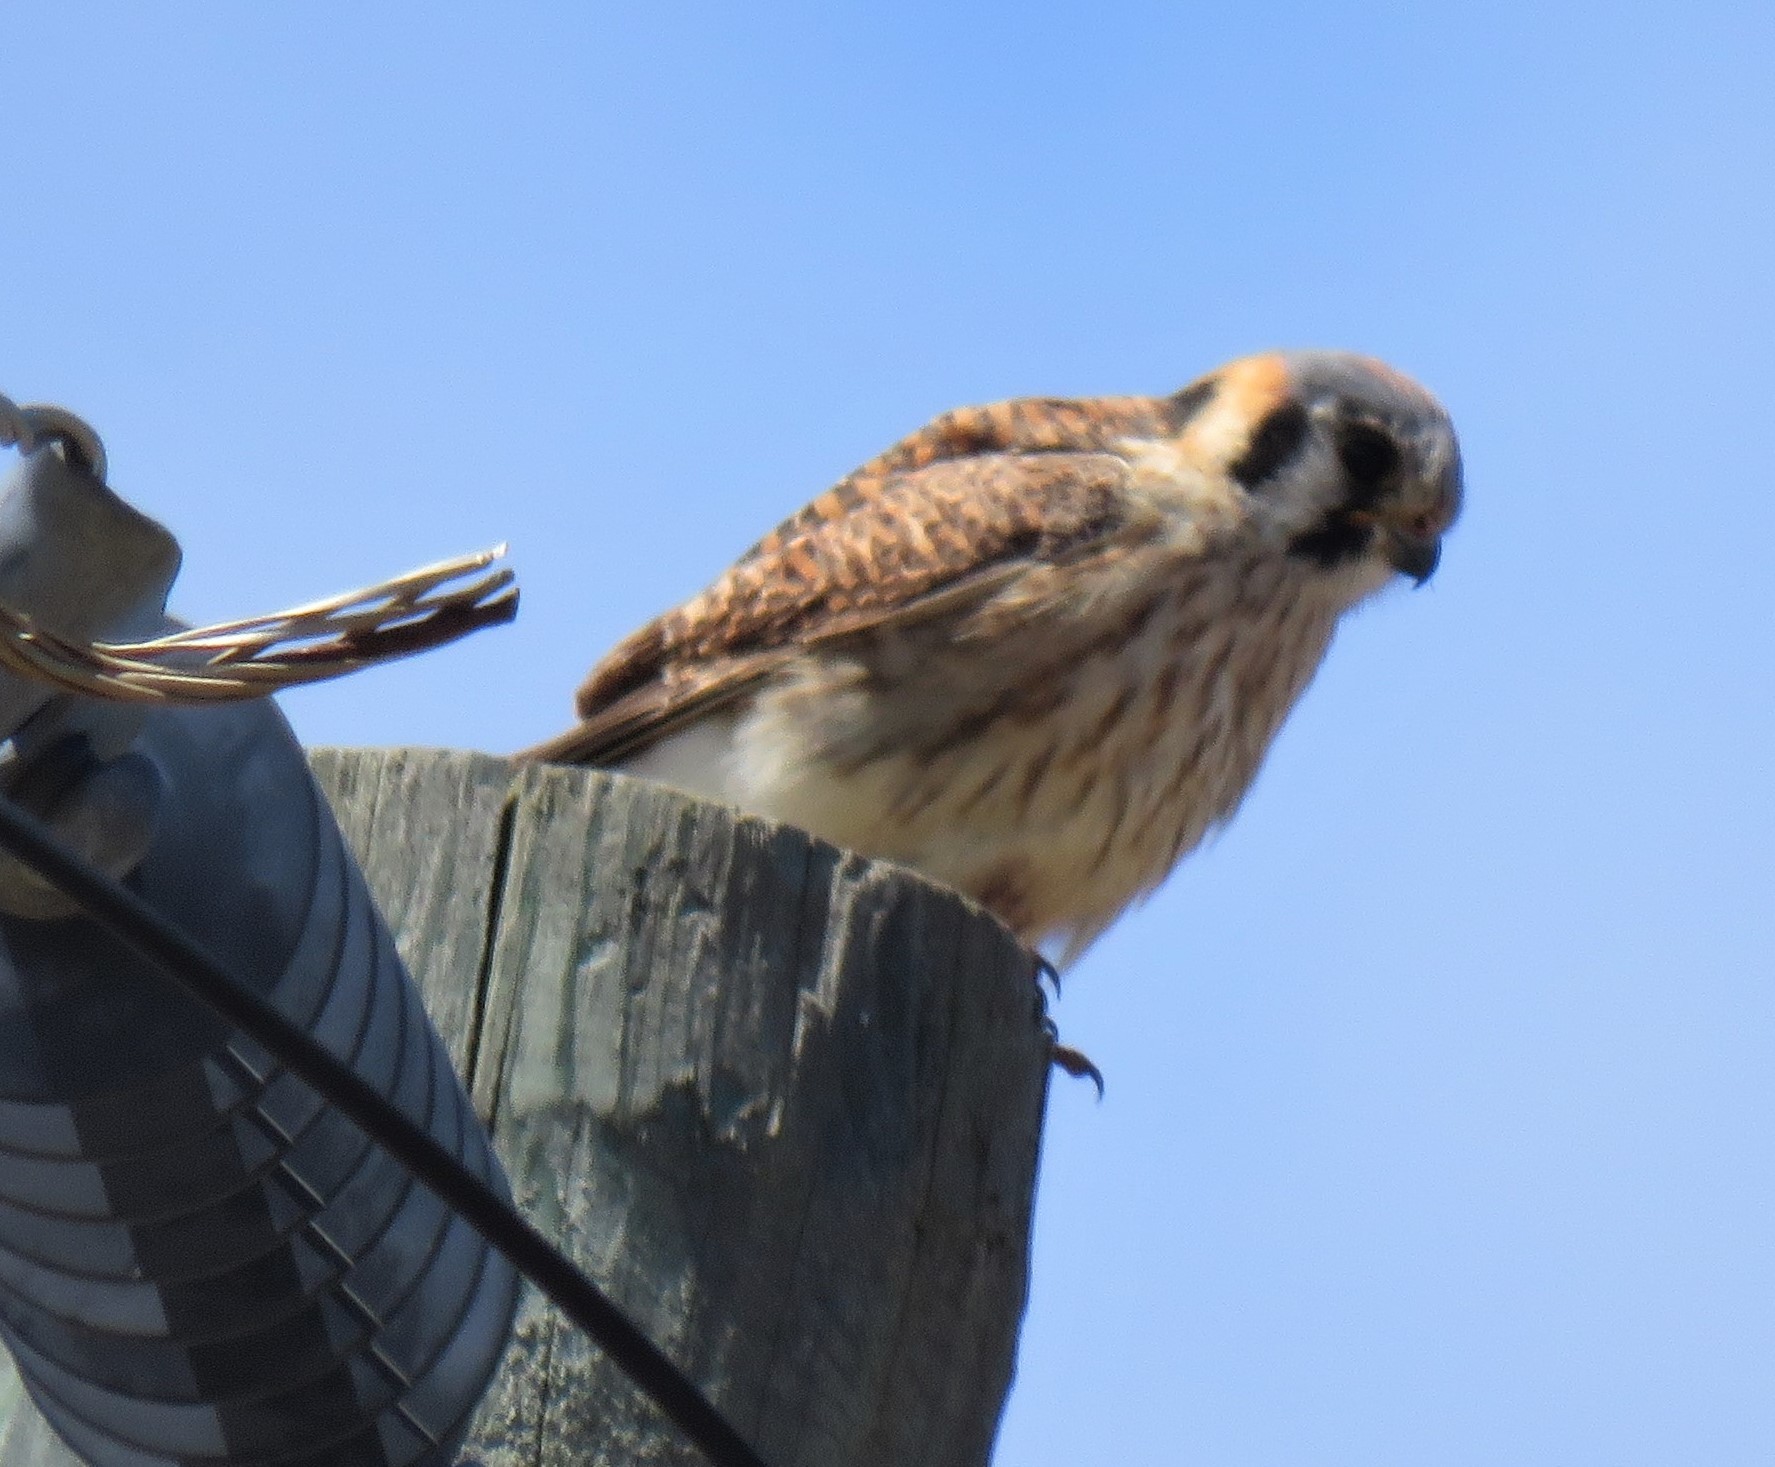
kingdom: Animalia
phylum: Chordata
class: Aves
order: Falconiformes
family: Falconidae
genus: Falco
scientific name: Falco sparverius
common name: American kestrel
